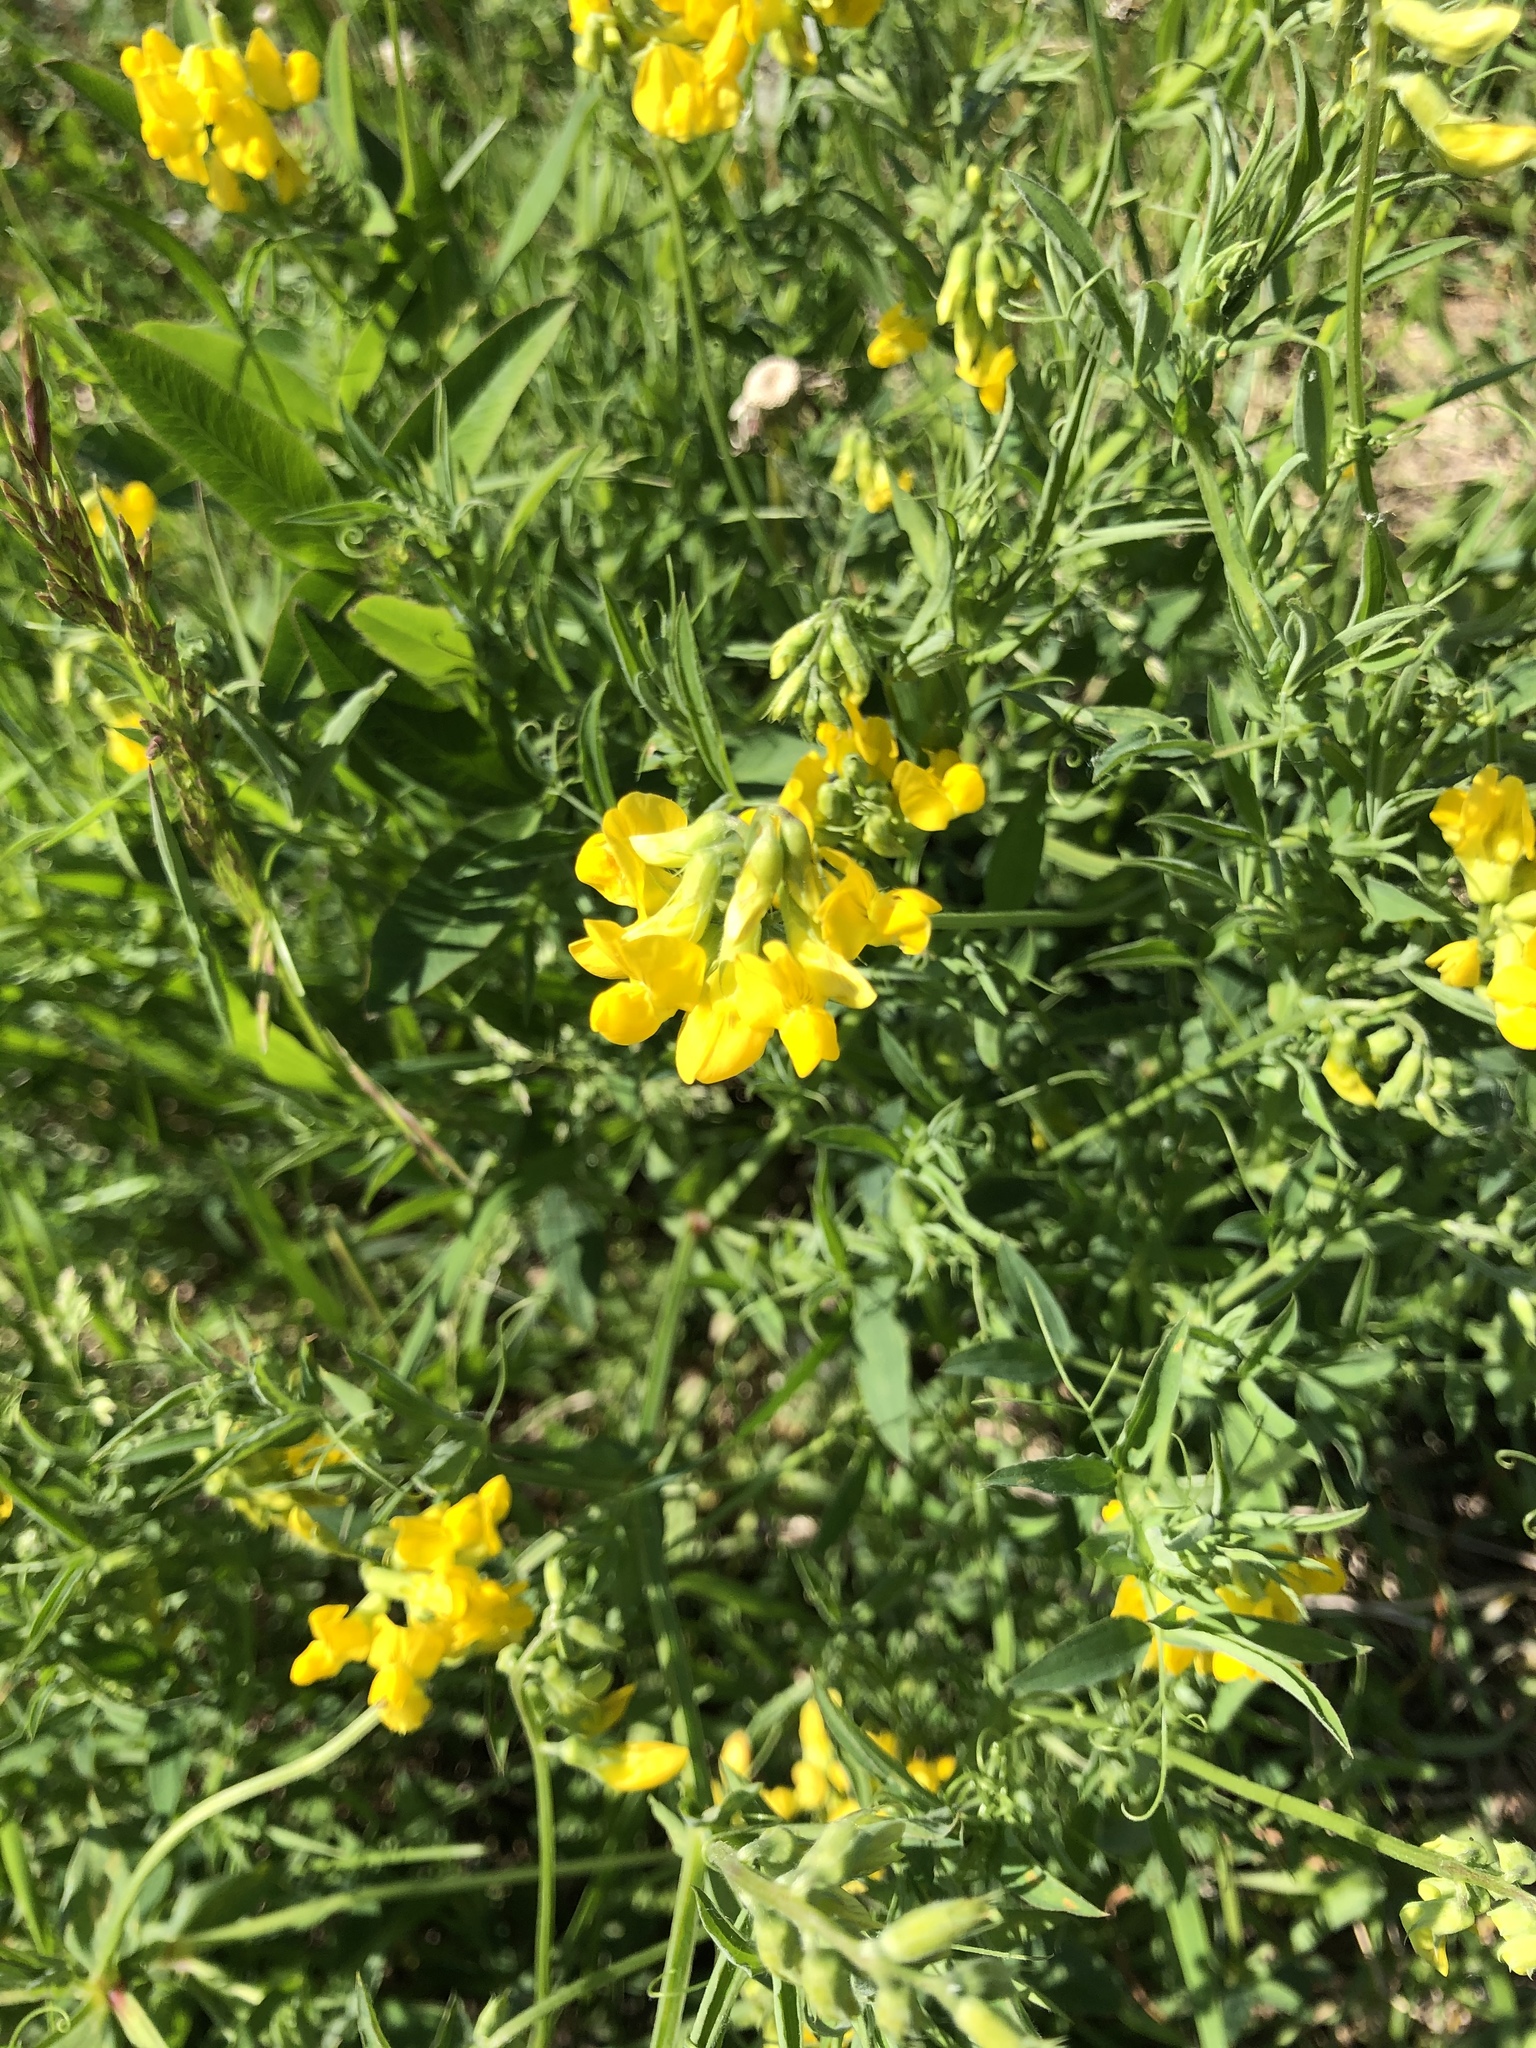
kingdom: Plantae
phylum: Tracheophyta
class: Magnoliopsida
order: Fabales
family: Fabaceae
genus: Lathyrus
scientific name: Lathyrus pratensis
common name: Meadow vetchling
